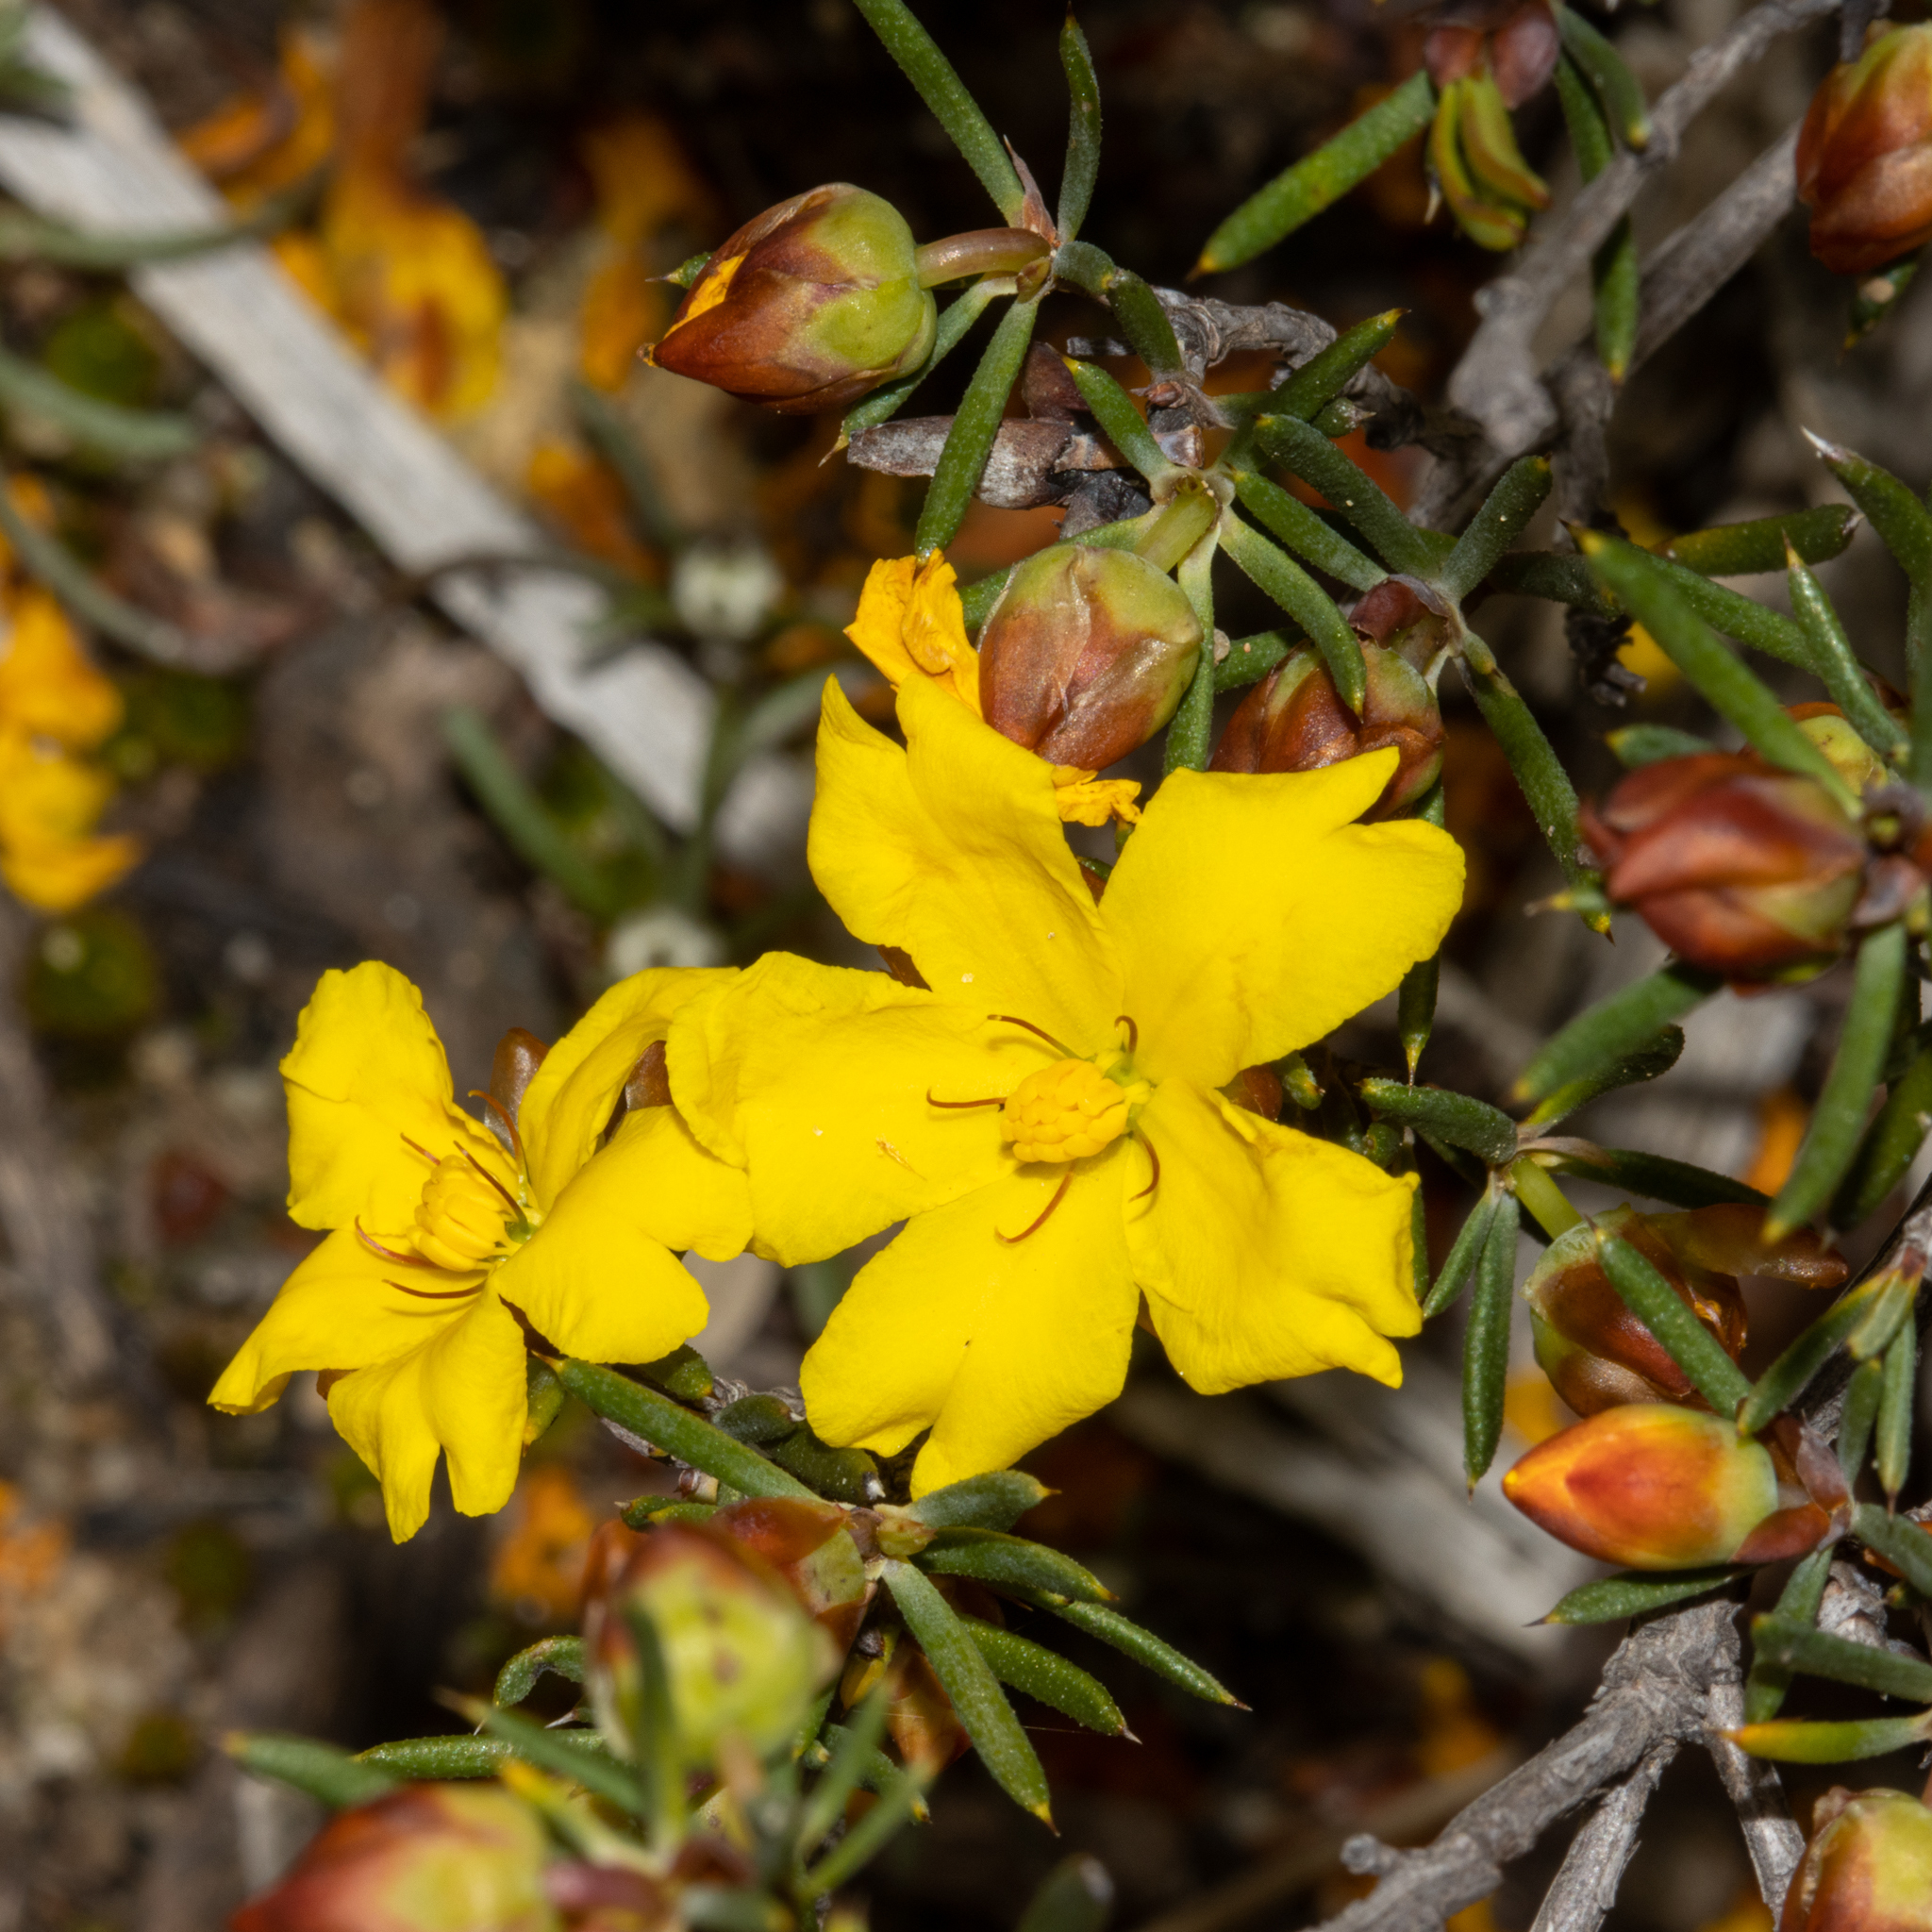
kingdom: Plantae
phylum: Tracheophyta
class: Magnoliopsida
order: Dilleniales
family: Dilleniaceae
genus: Hibbertia
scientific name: Hibbertia exasperata
